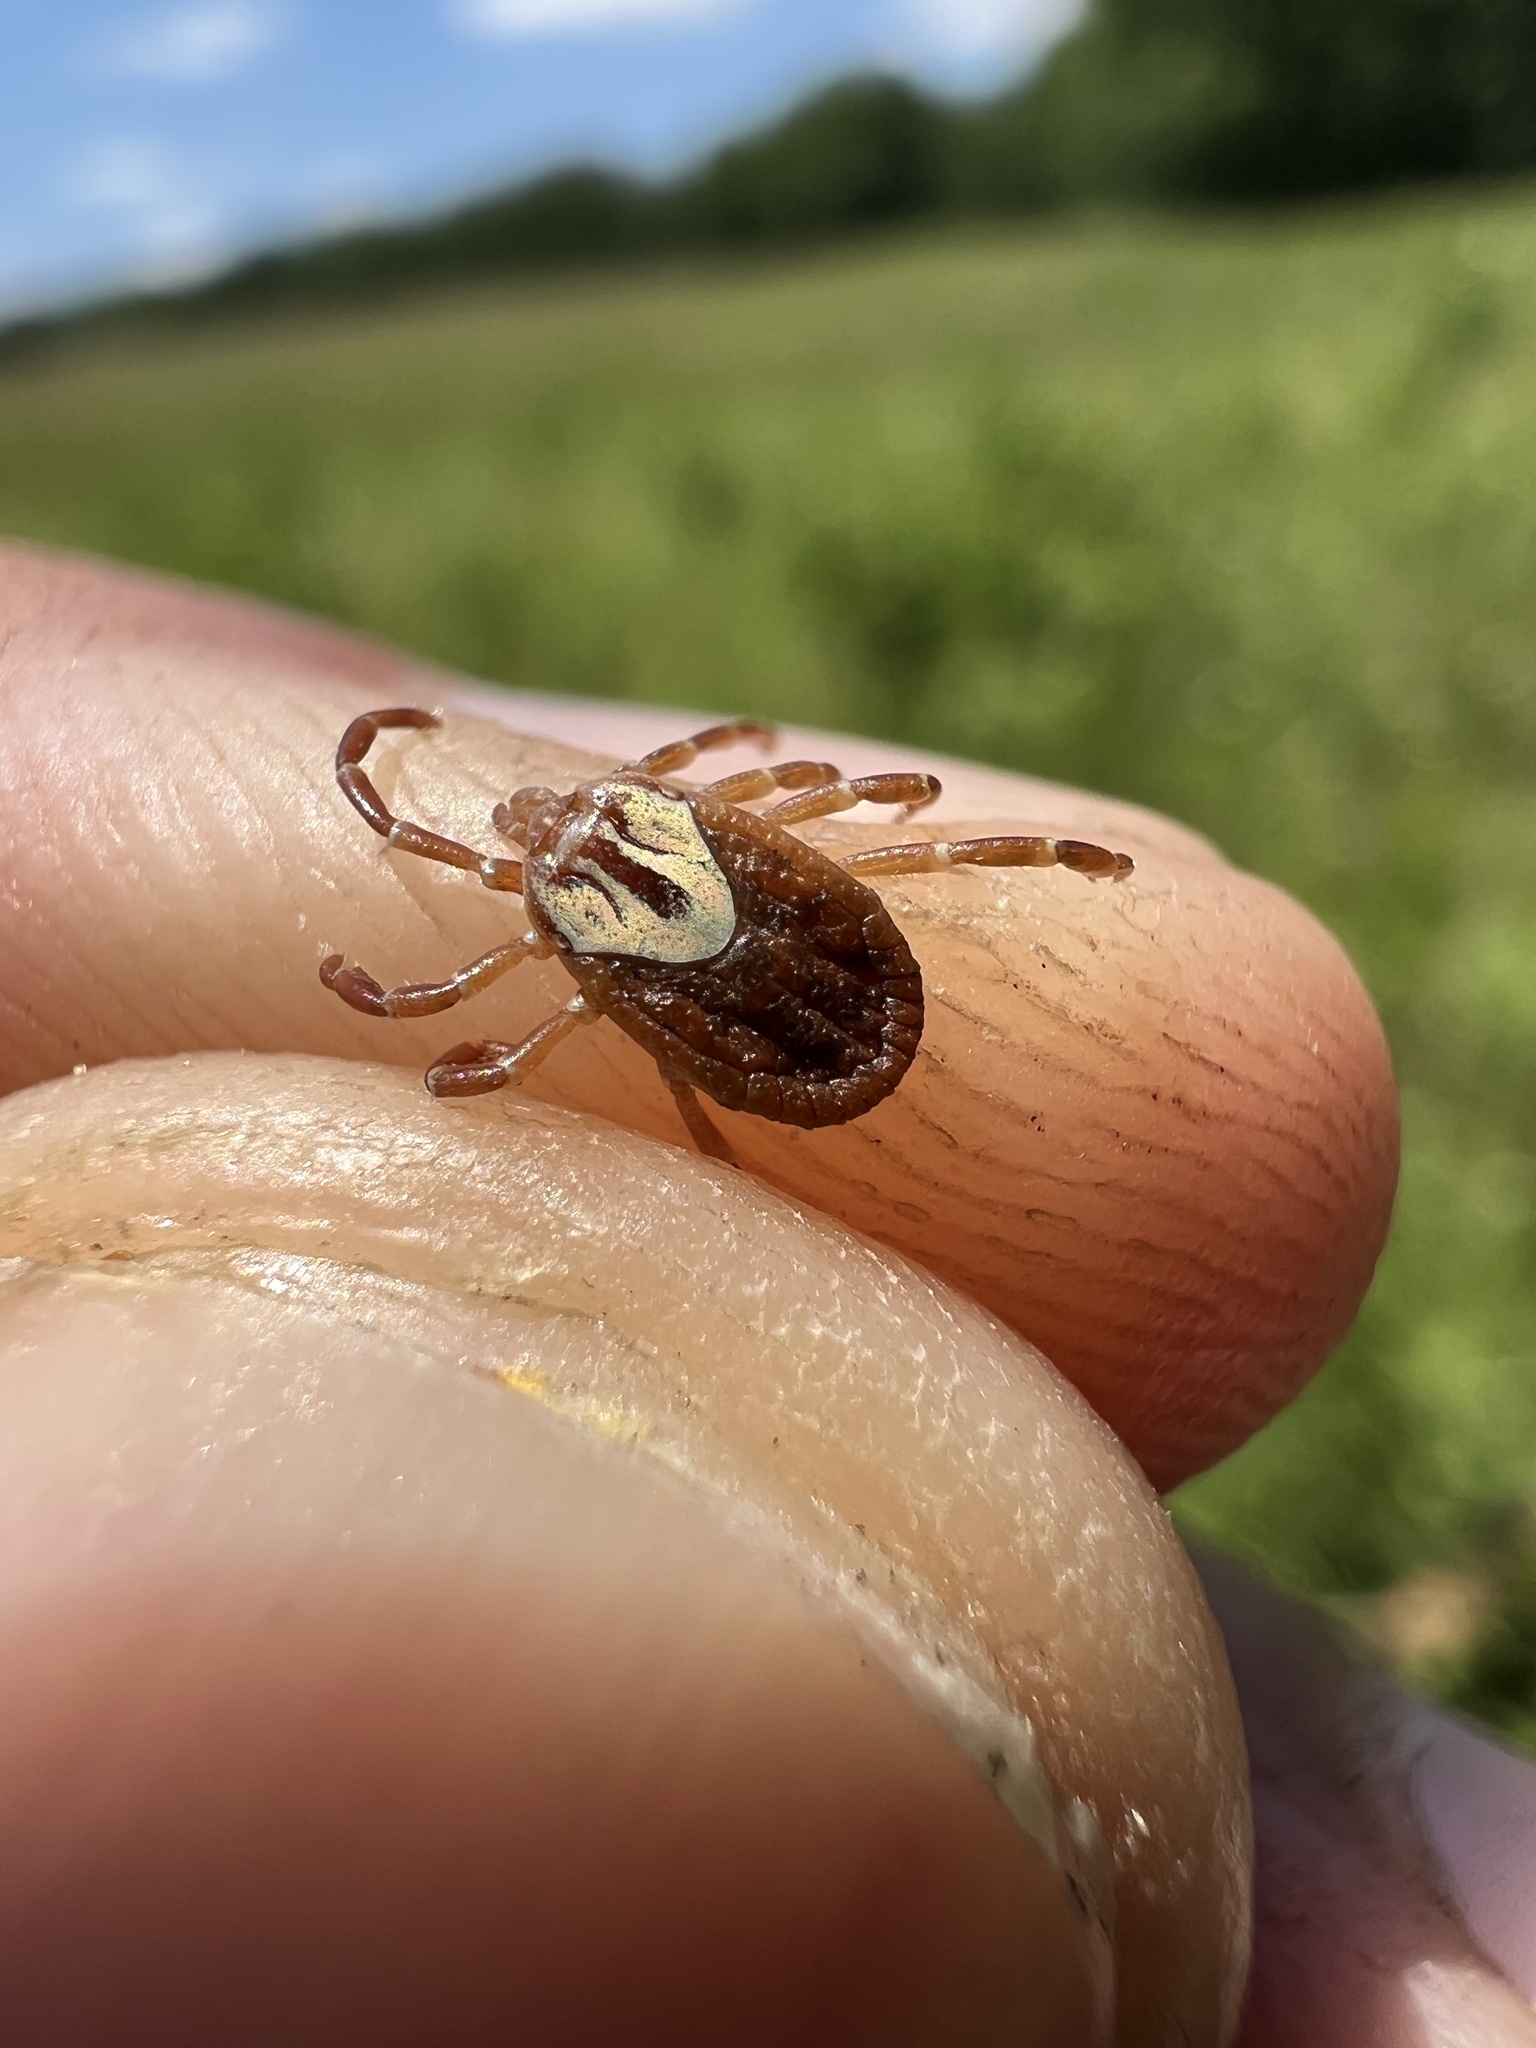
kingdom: Animalia
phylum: Arthropoda
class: Arachnida
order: Ixodida
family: Ixodidae
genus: Amblyomma
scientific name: Amblyomma maculatum
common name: Gulf coast tick
